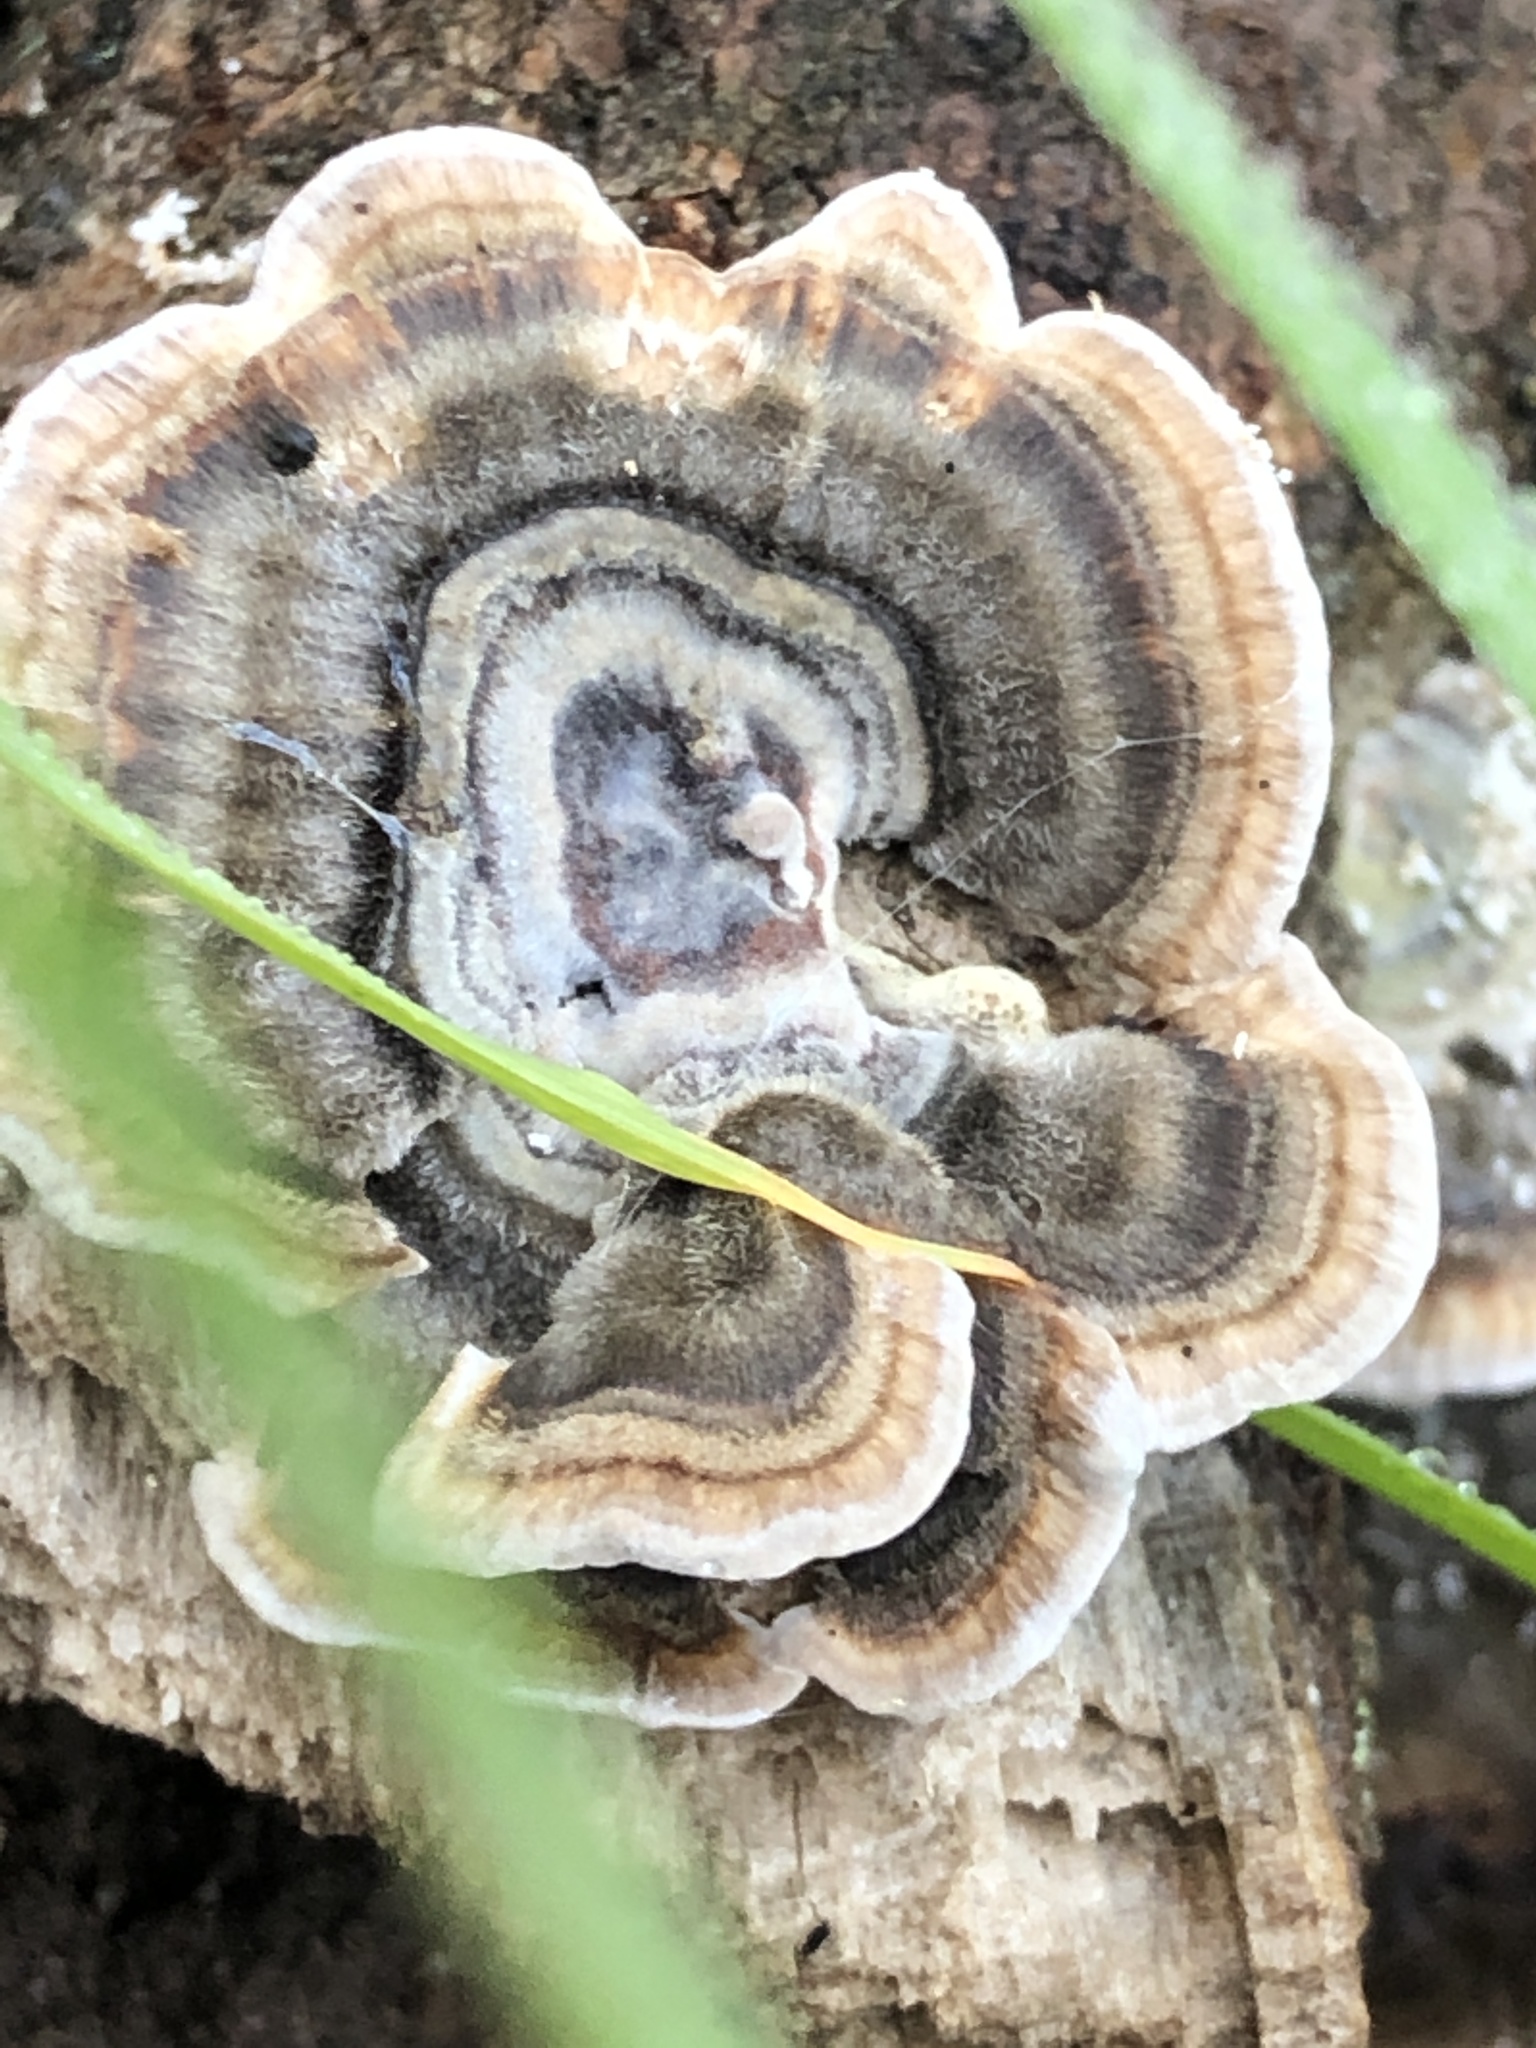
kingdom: Fungi
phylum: Basidiomycota
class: Agaricomycetes
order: Polyporales
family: Polyporaceae
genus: Trametes
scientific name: Trametes versicolor
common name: Turkeytail
